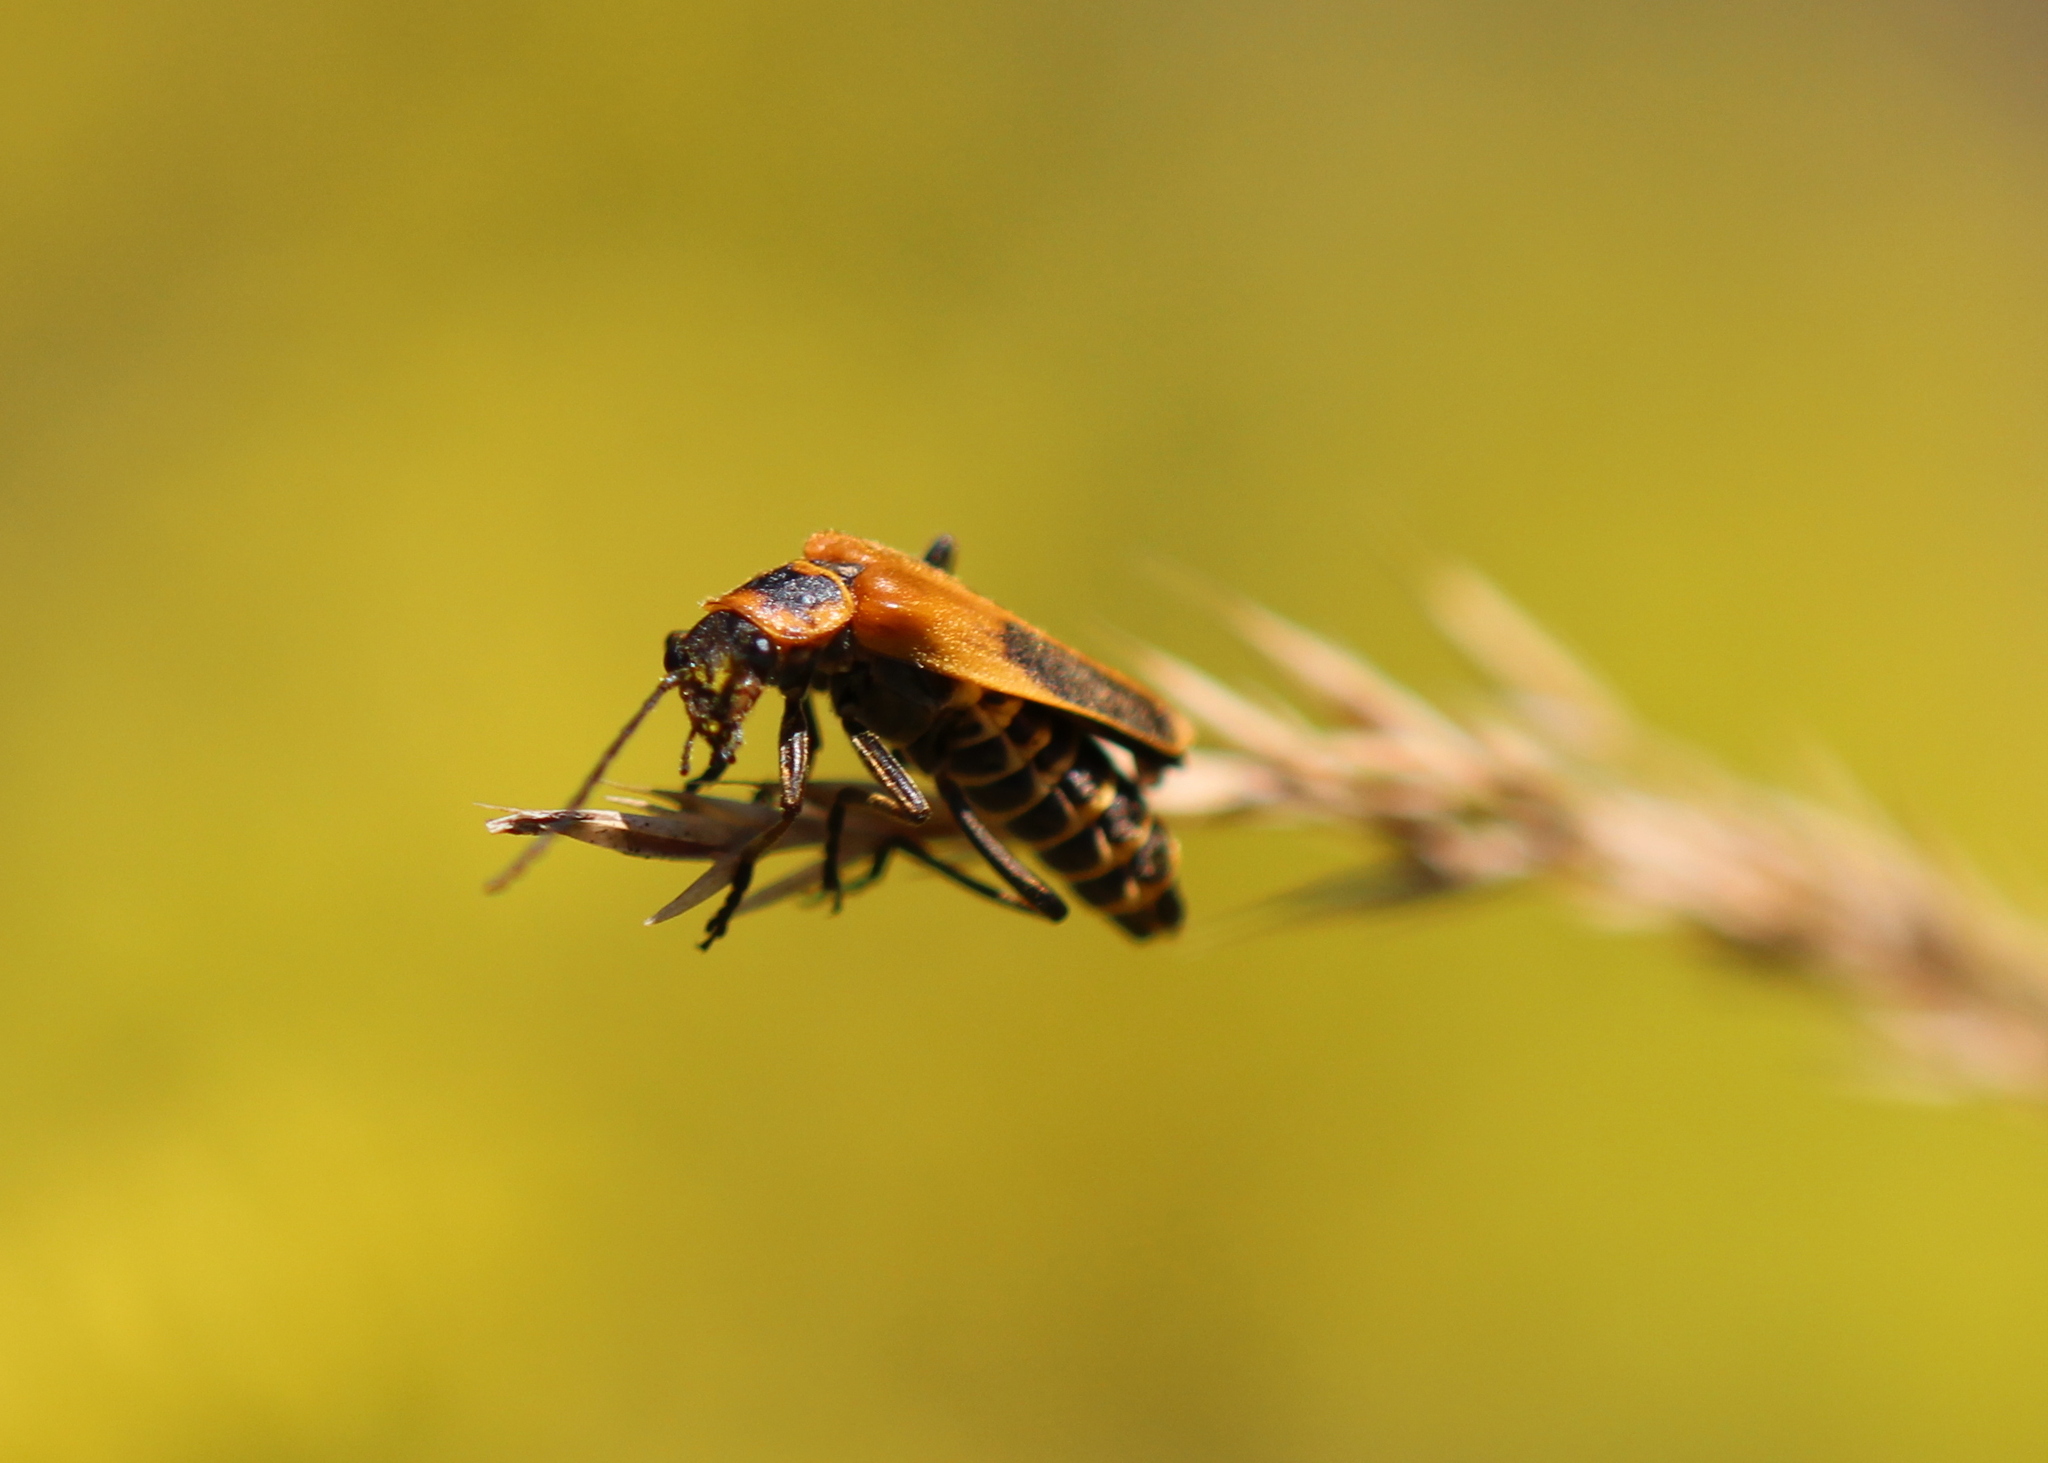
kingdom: Animalia
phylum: Arthropoda
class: Insecta
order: Coleoptera
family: Cantharidae
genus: Chauliognathus
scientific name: Chauliognathus pensylvanicus
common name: Goldenrod soldier beetle
